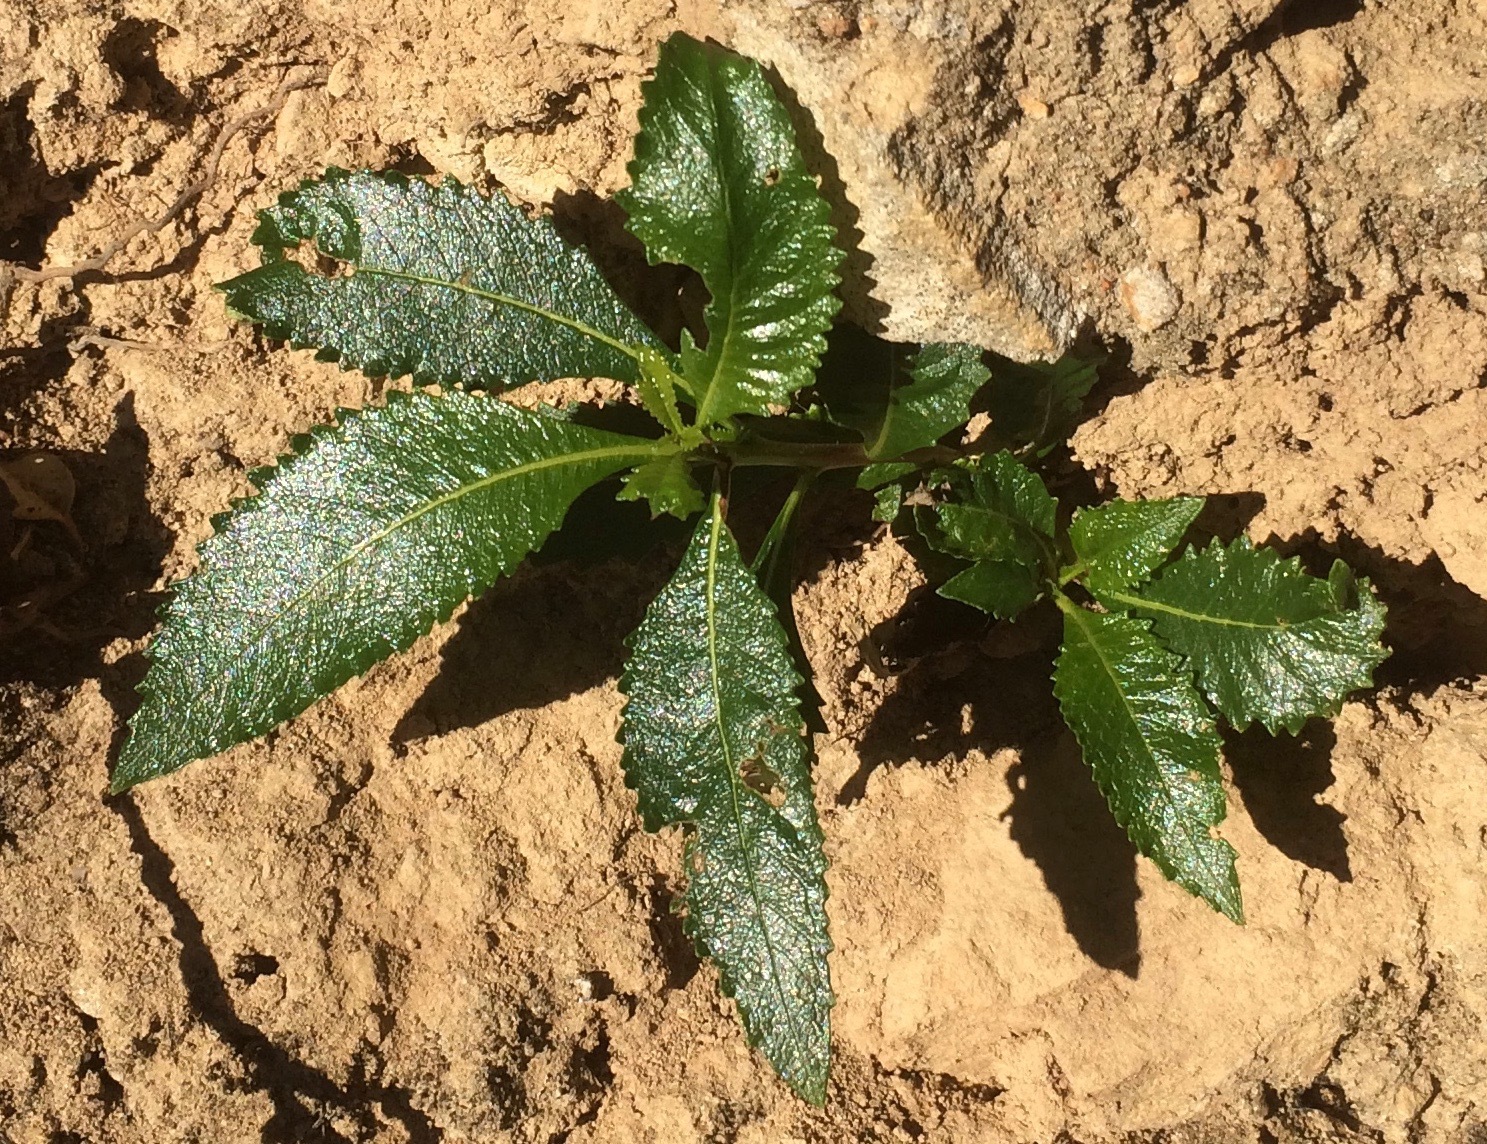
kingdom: Plantae
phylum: Tracheophyta
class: Magnoliopsida
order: Boraginales
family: Namaceae
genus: Eriodictyon
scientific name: Eriodictyon californicum
